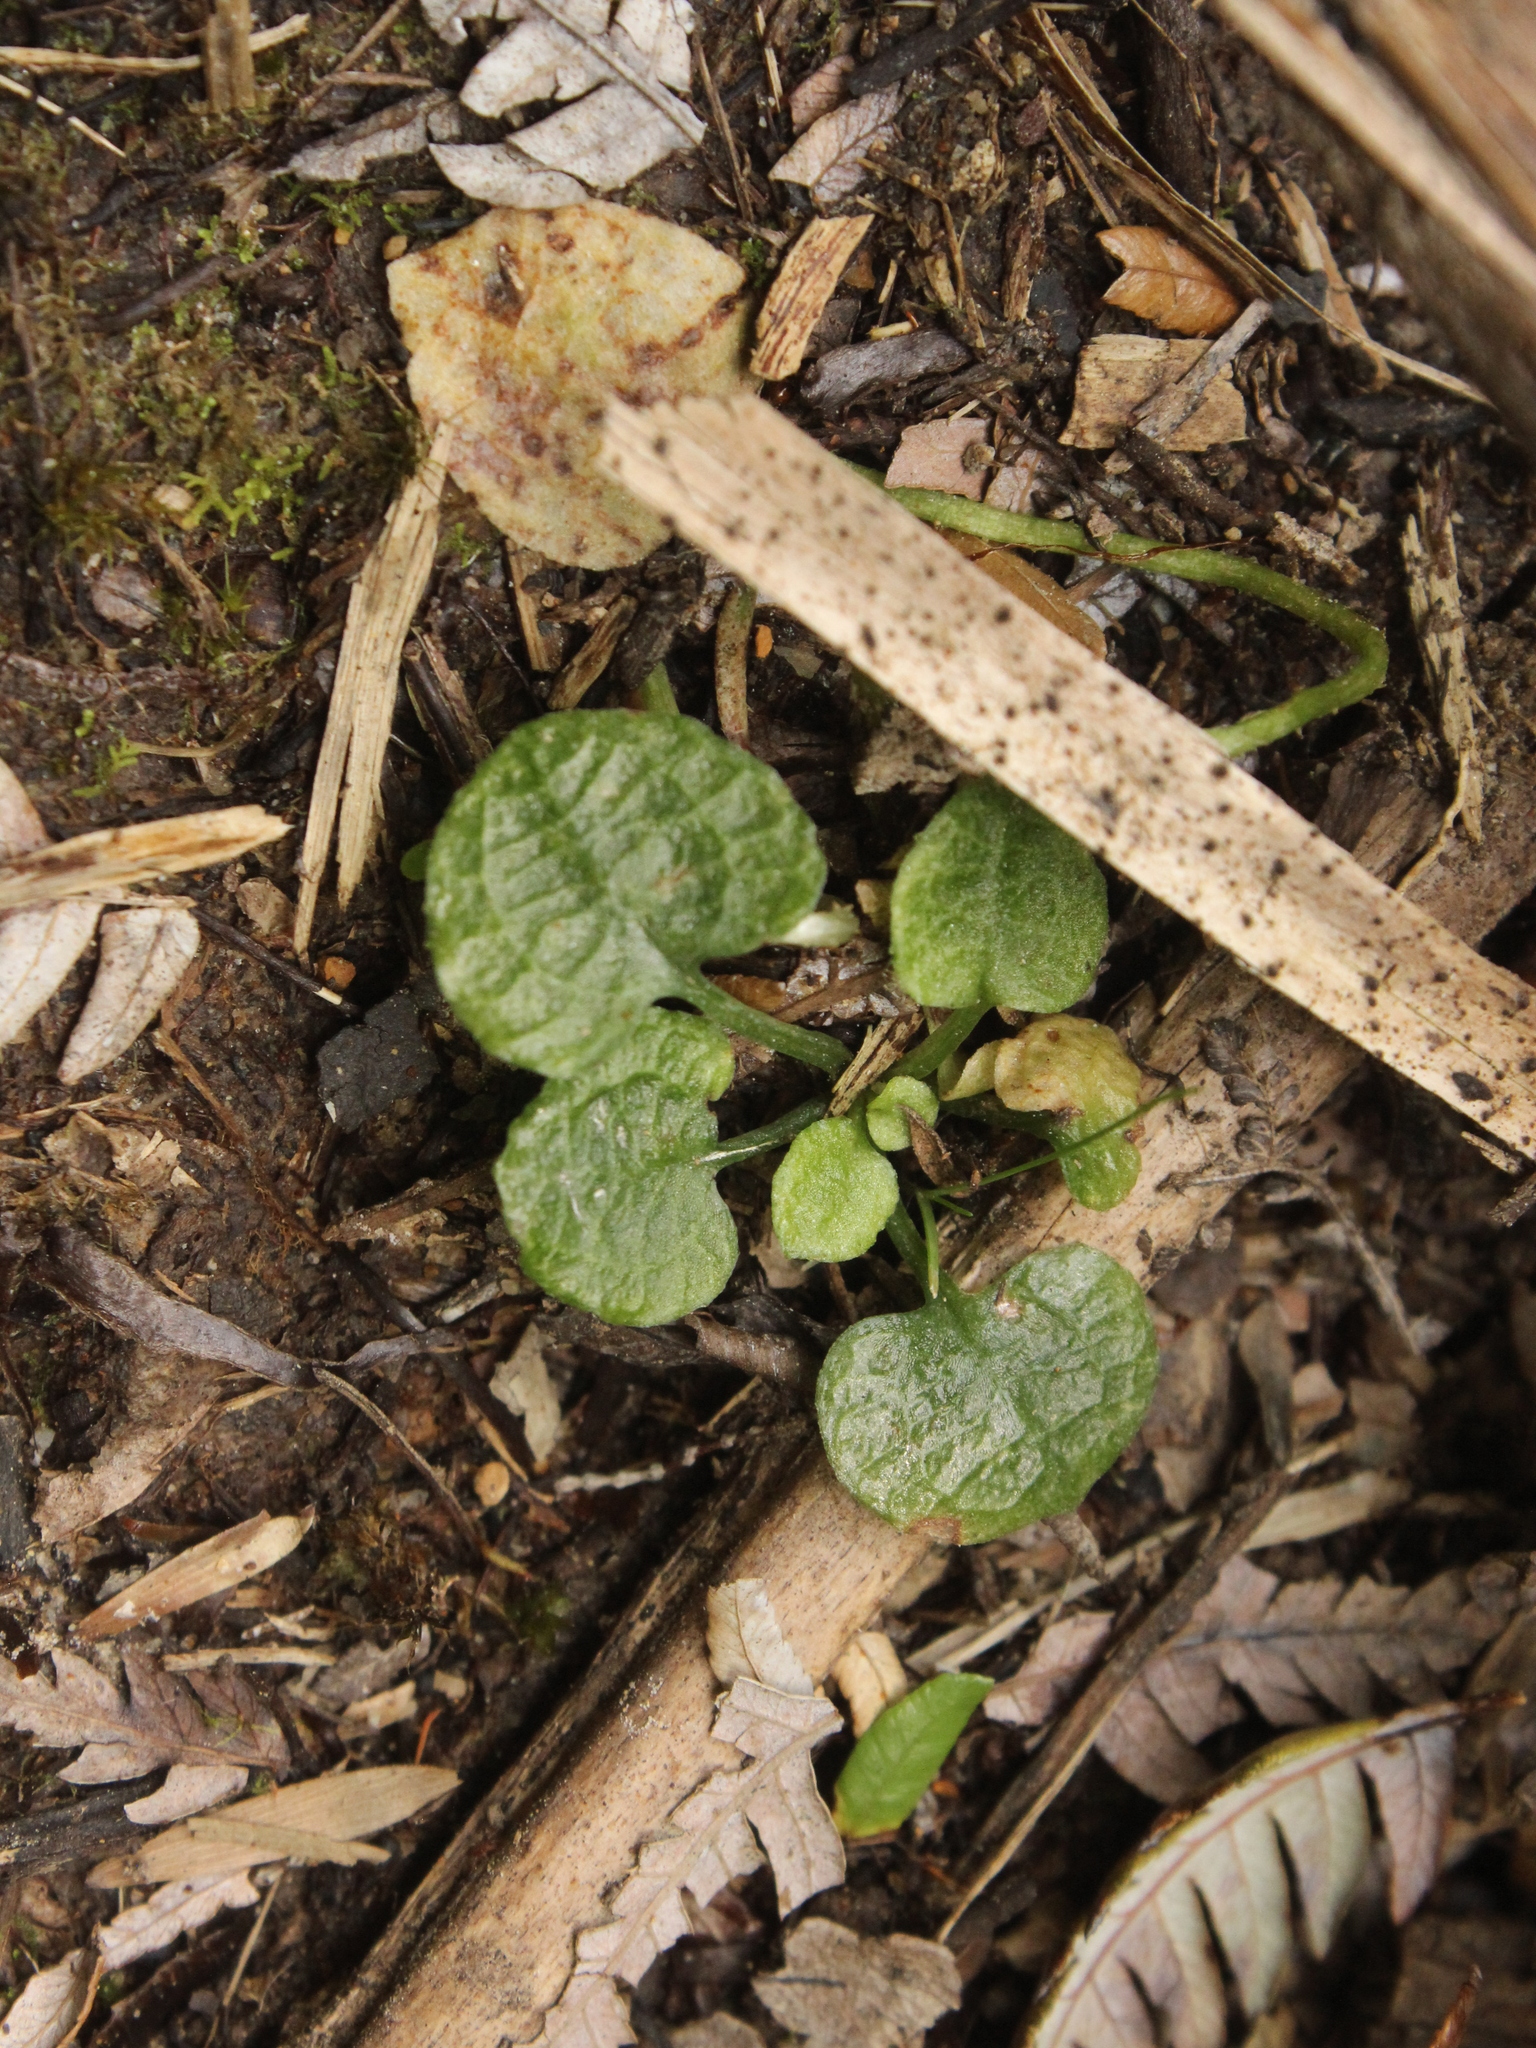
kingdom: Plantae
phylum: Tracheophyta
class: Liliopsida
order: Asparagales
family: Orchidaceae
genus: Pterostylis
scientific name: Pterostylis trullifolia
